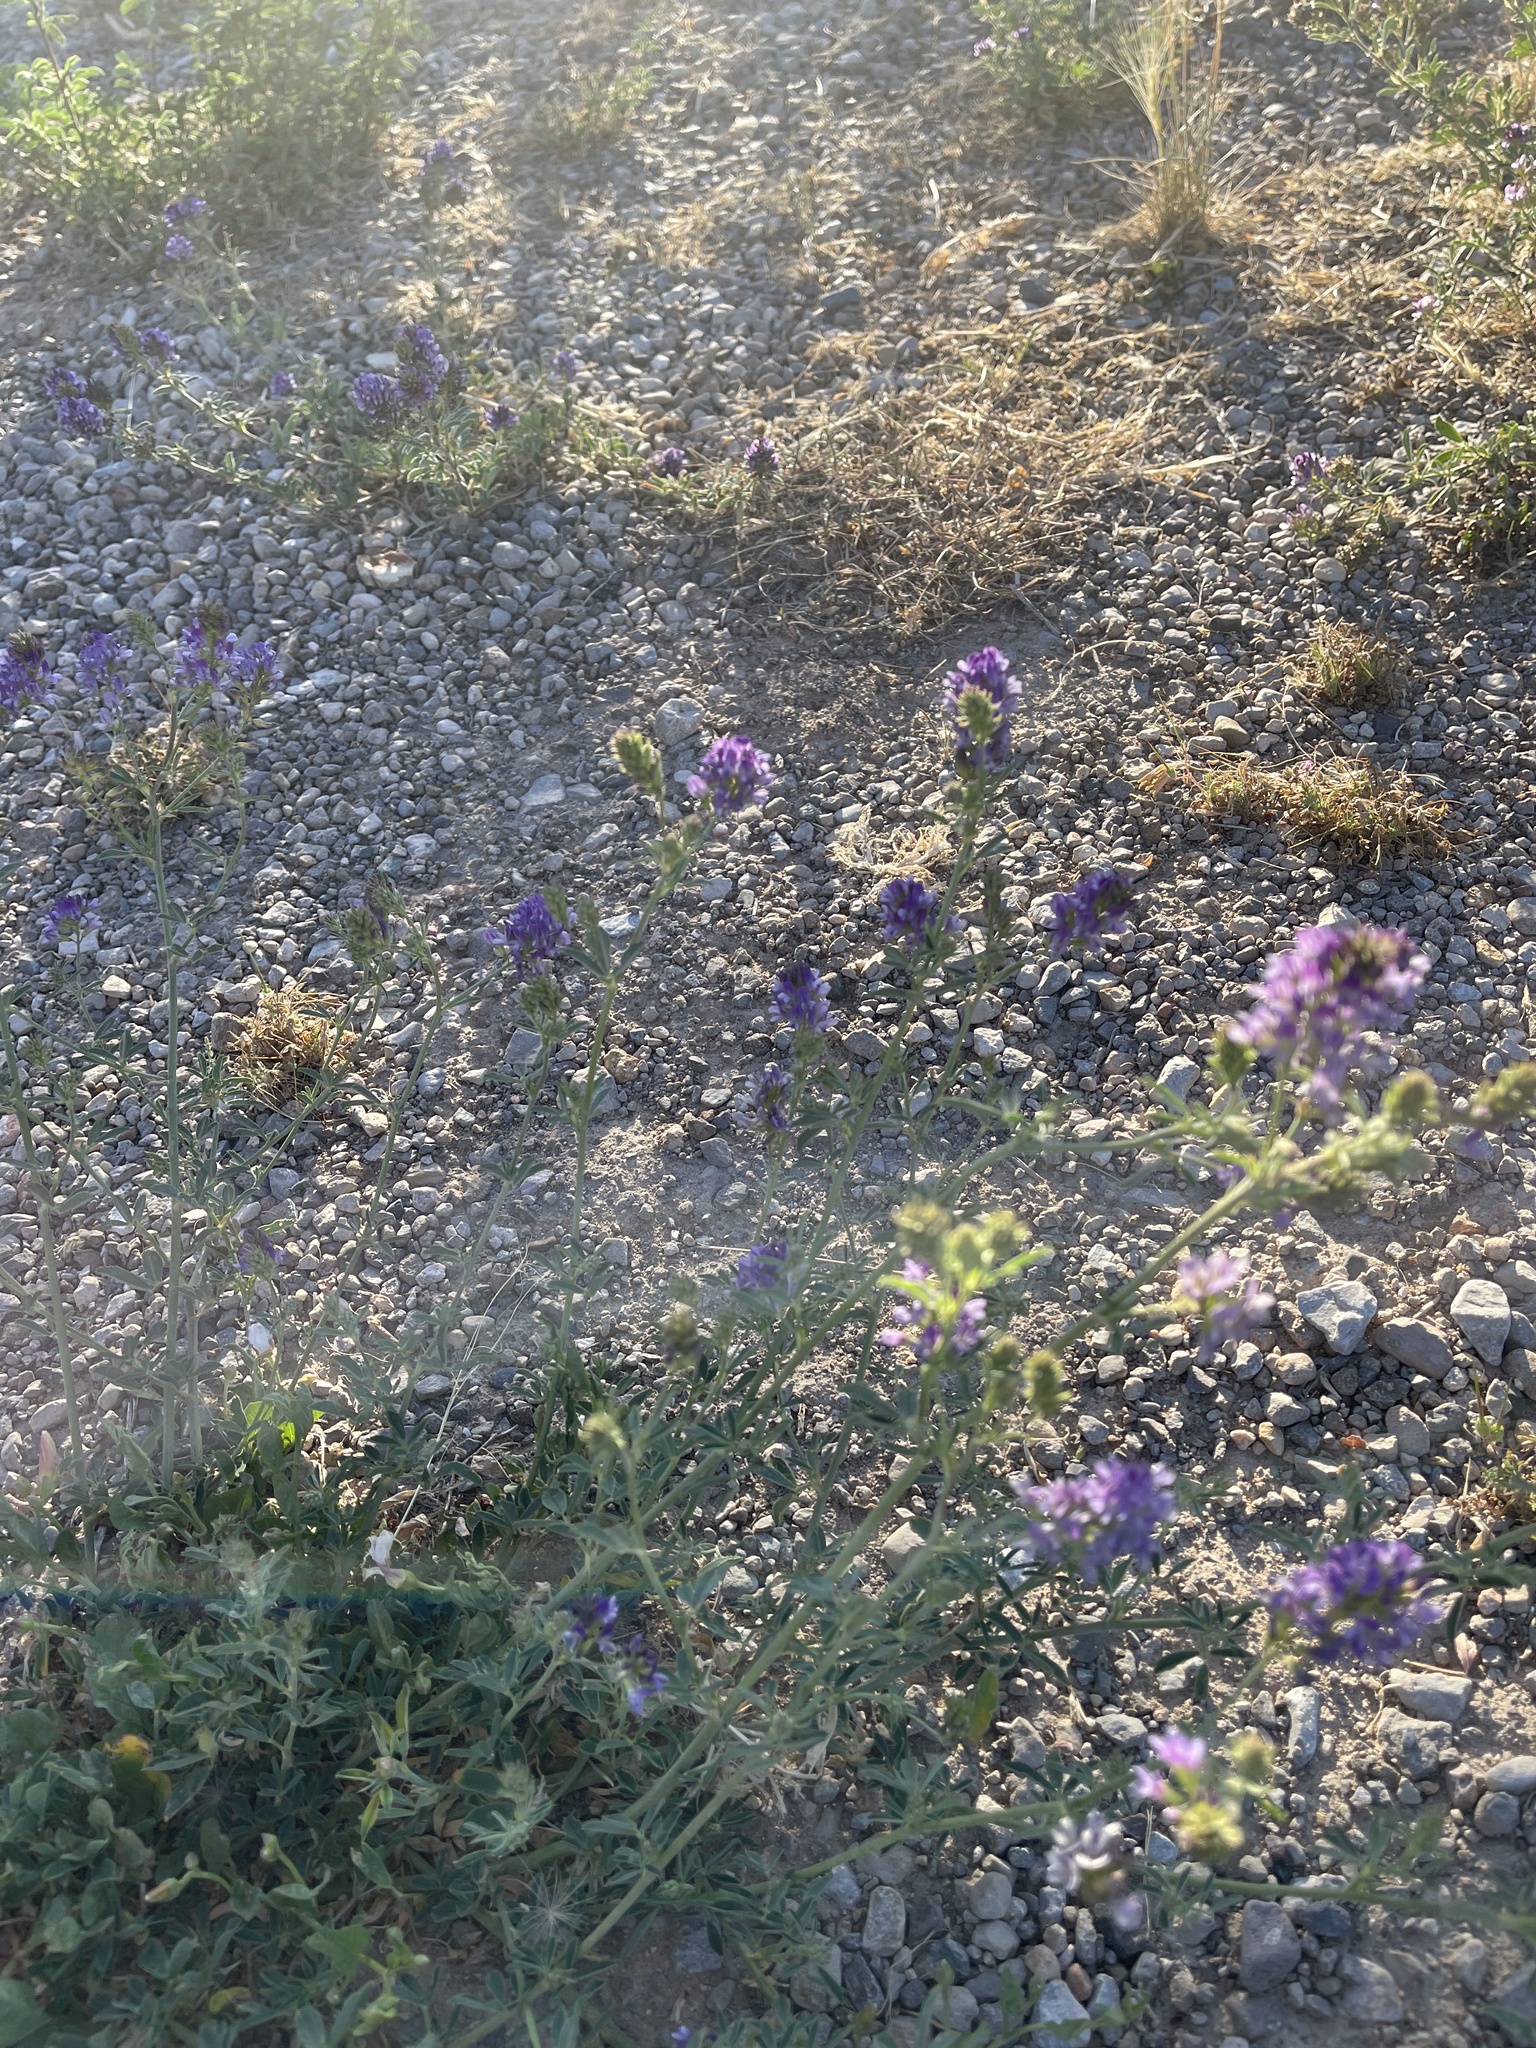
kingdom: Plantae
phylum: Tracheophyta
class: Magnoliopsida
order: Fabales
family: Fabaceae
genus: Medicago
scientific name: Medicago sativa
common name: Alfalfa
